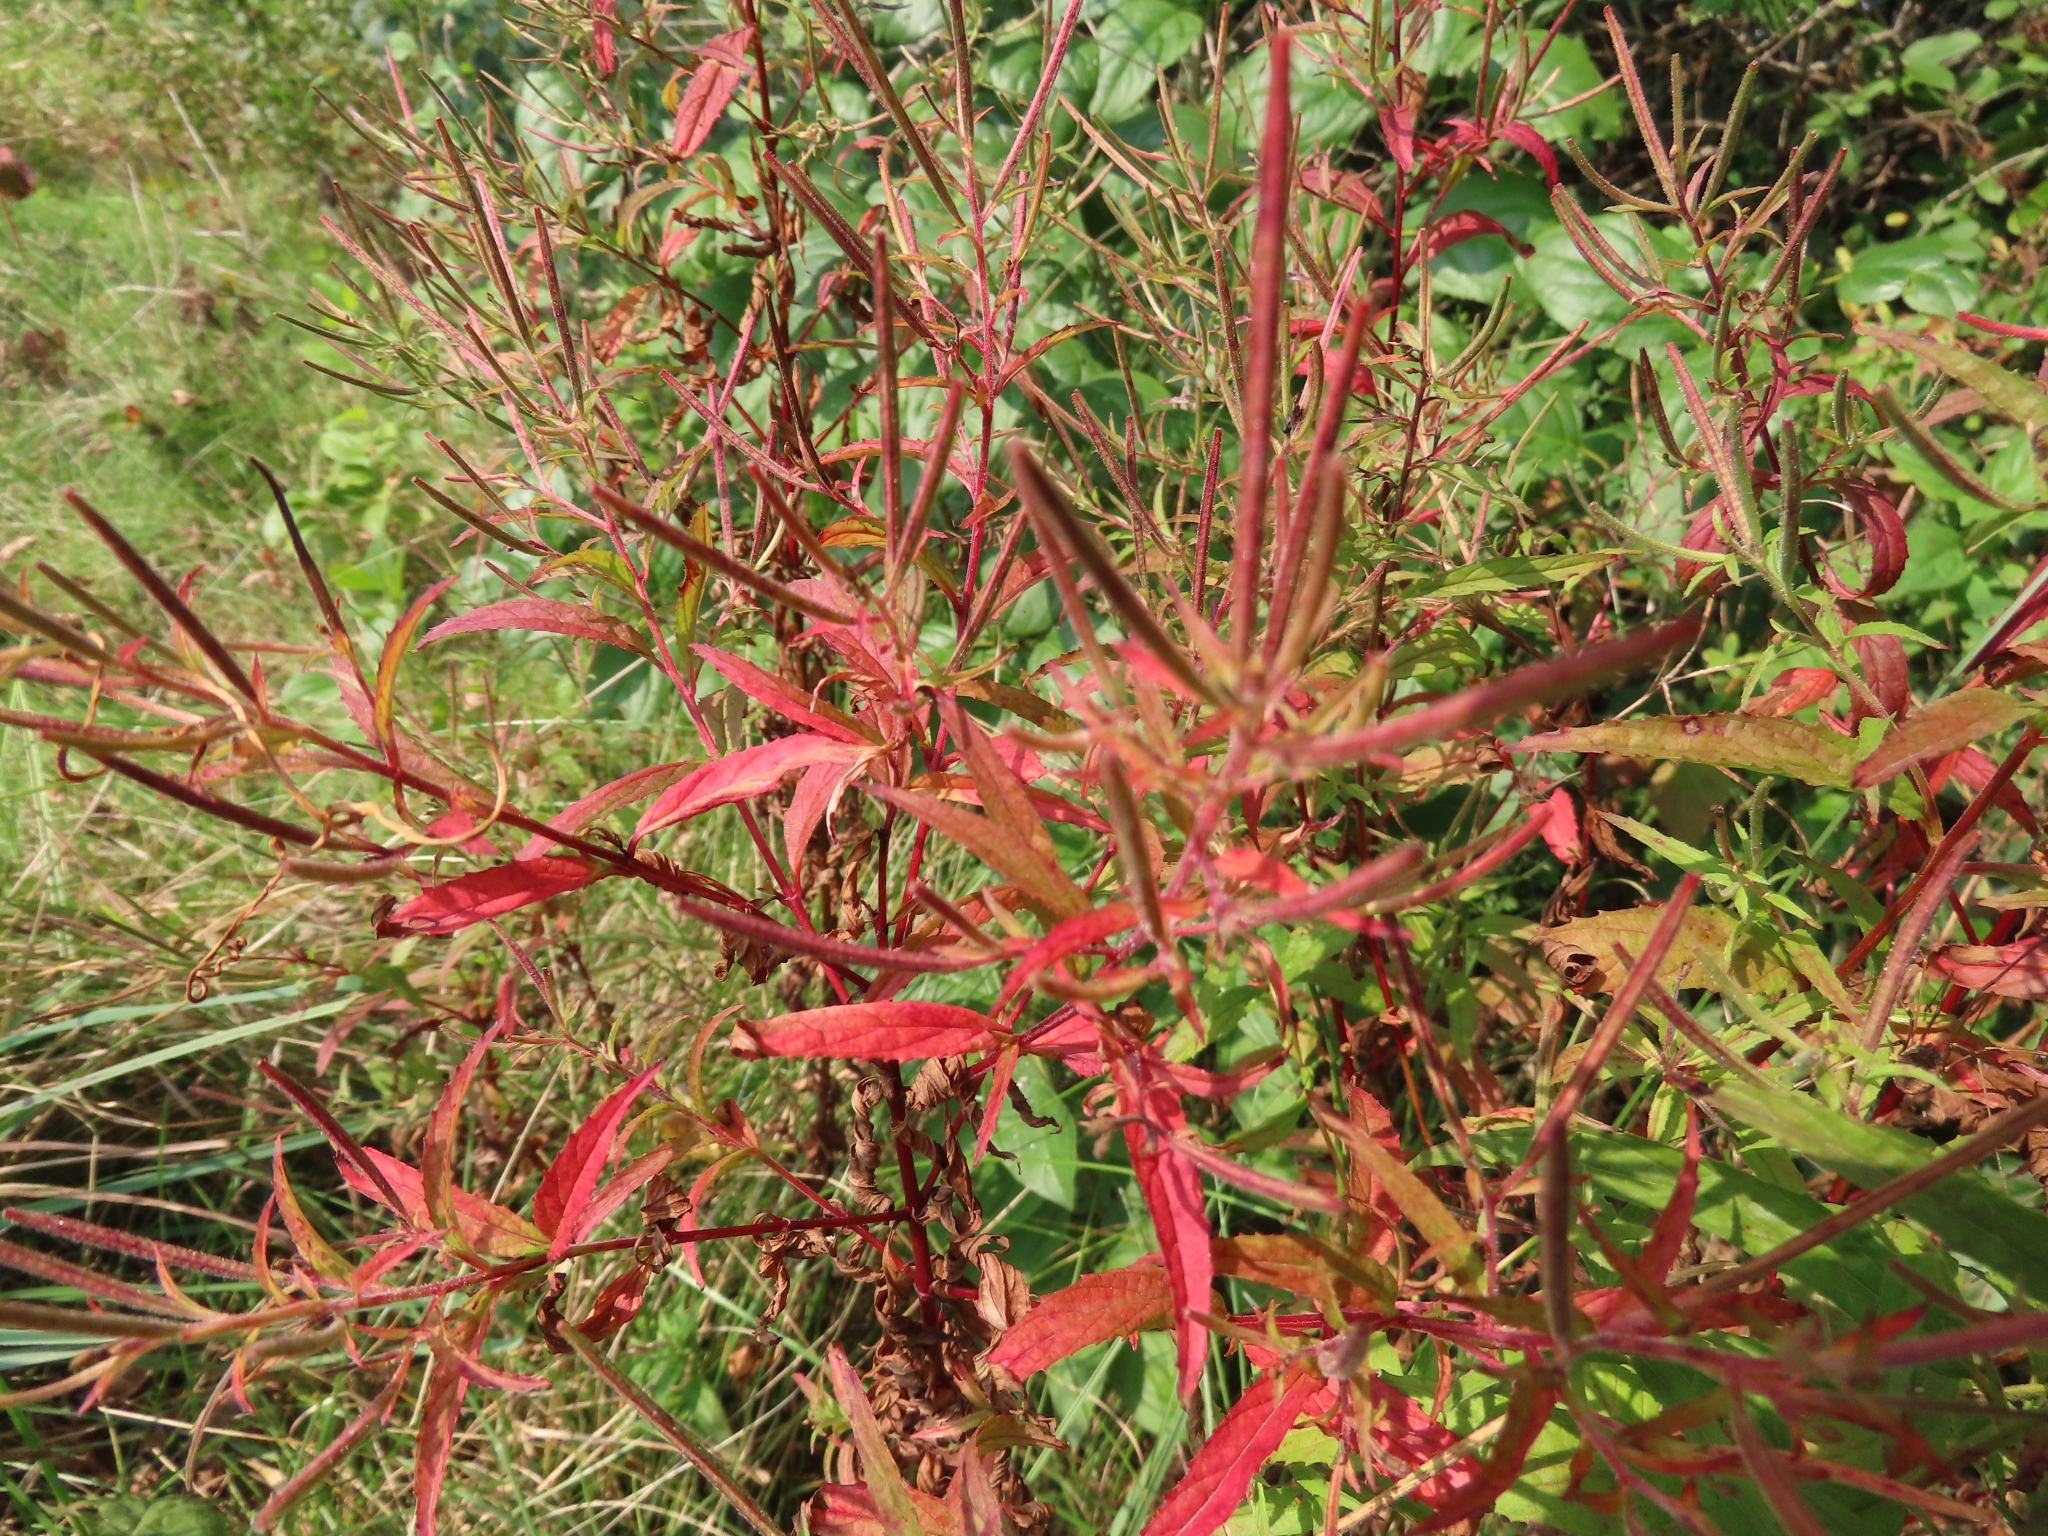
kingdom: Plantae
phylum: Tracheophyta
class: Magnoliopsida
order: Myrtales
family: Onagraceae
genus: Epilobium
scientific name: Epilobium coloratum
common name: Bronze willowherb
